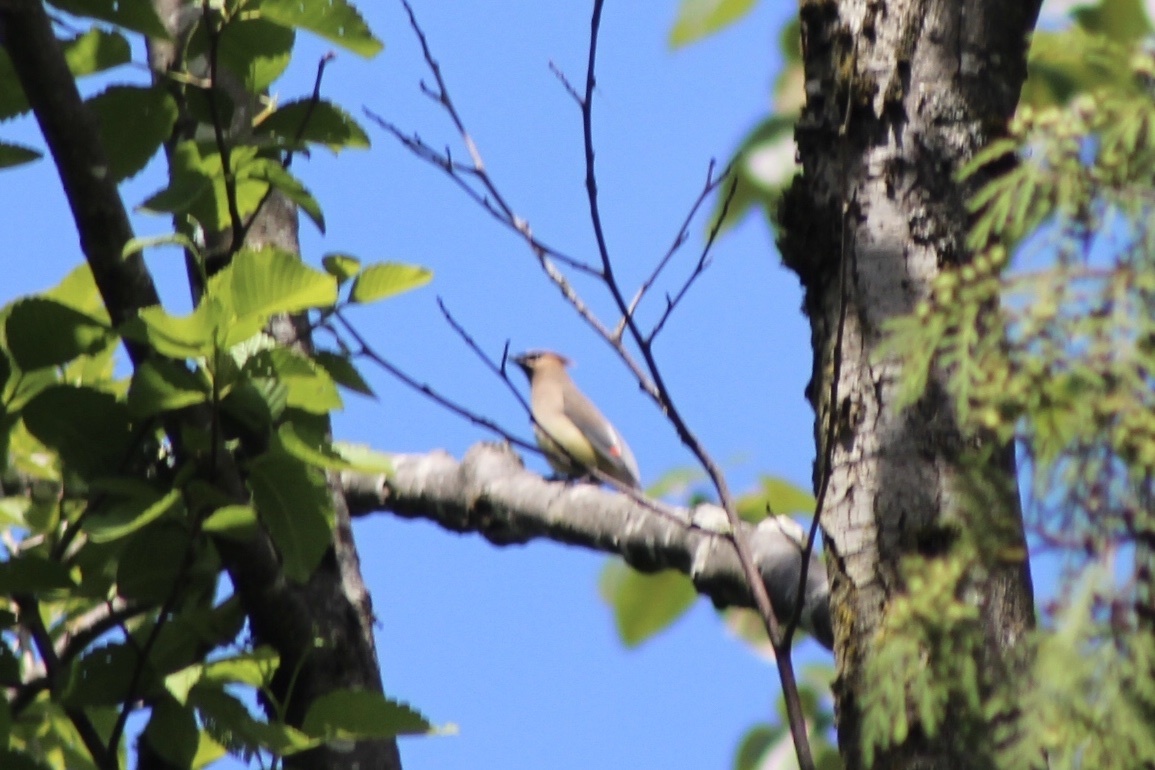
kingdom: Animalia
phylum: Chordata
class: Aves
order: Passeriformes
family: Bombycillidae
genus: Bombycilla
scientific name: Bombycilla cedrorum
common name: Cedar waxwing
